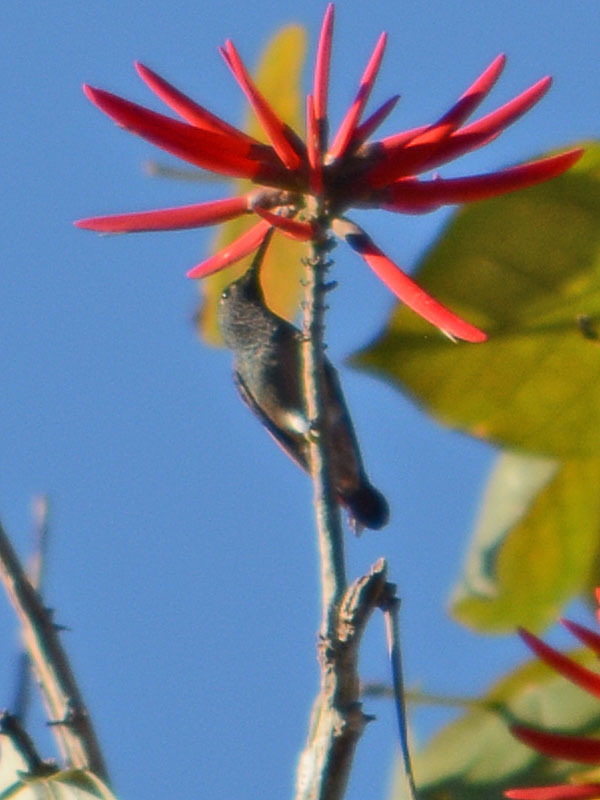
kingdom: Animalia
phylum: Chordata
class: Aves
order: Apodiformes
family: Trochilidae
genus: Saucerottia
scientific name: Saucerottia beryllina
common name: Berylline hummingbird
